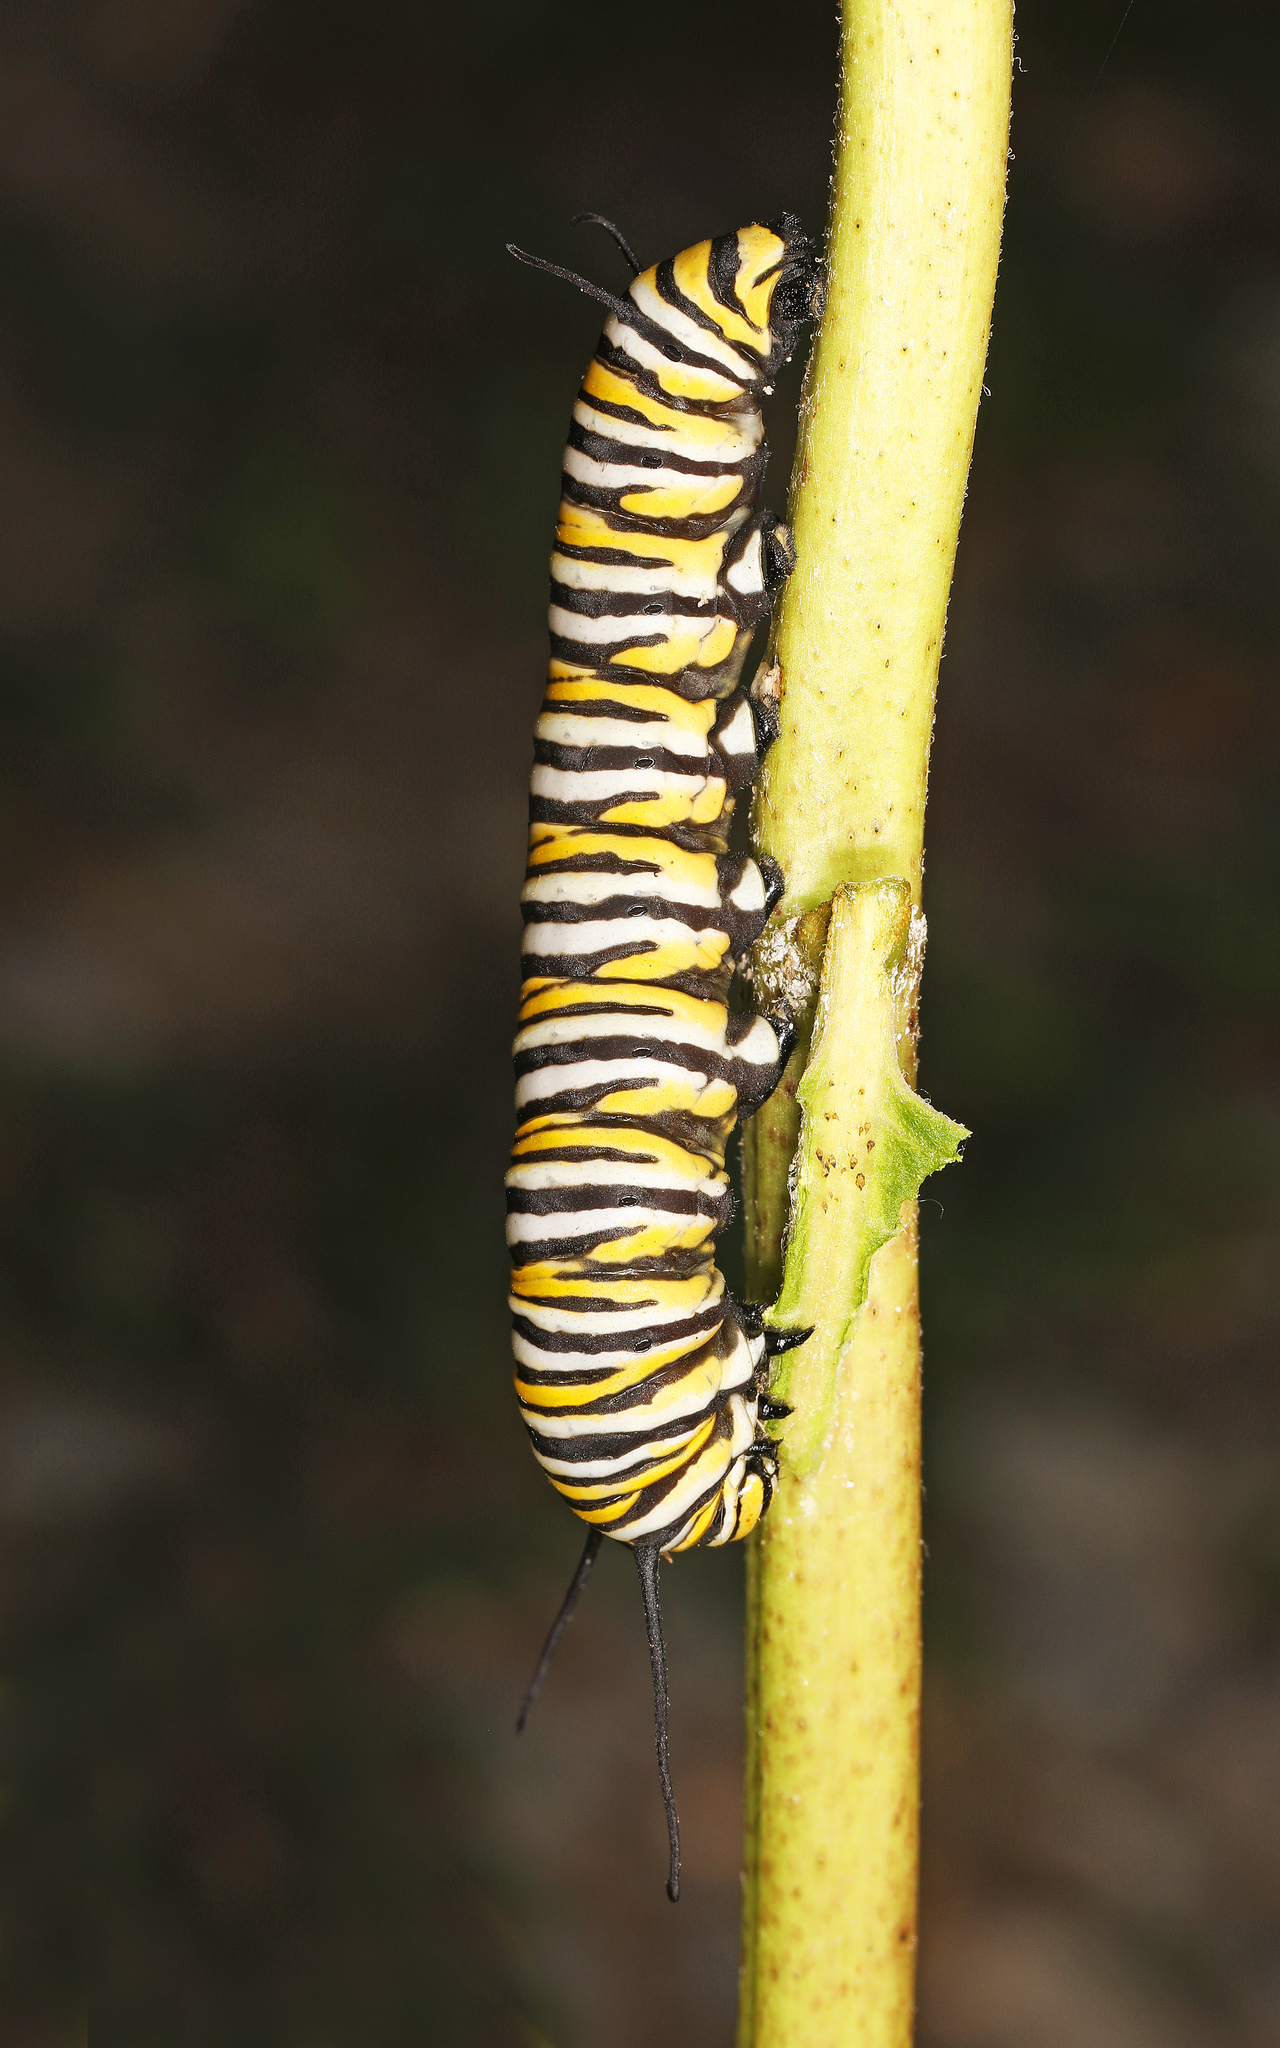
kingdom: Animalia
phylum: Arthropoda
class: Insecta
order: Lepidoptera
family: Nymphalidae
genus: Danaus
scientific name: Danaus plexippus
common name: Monarch
